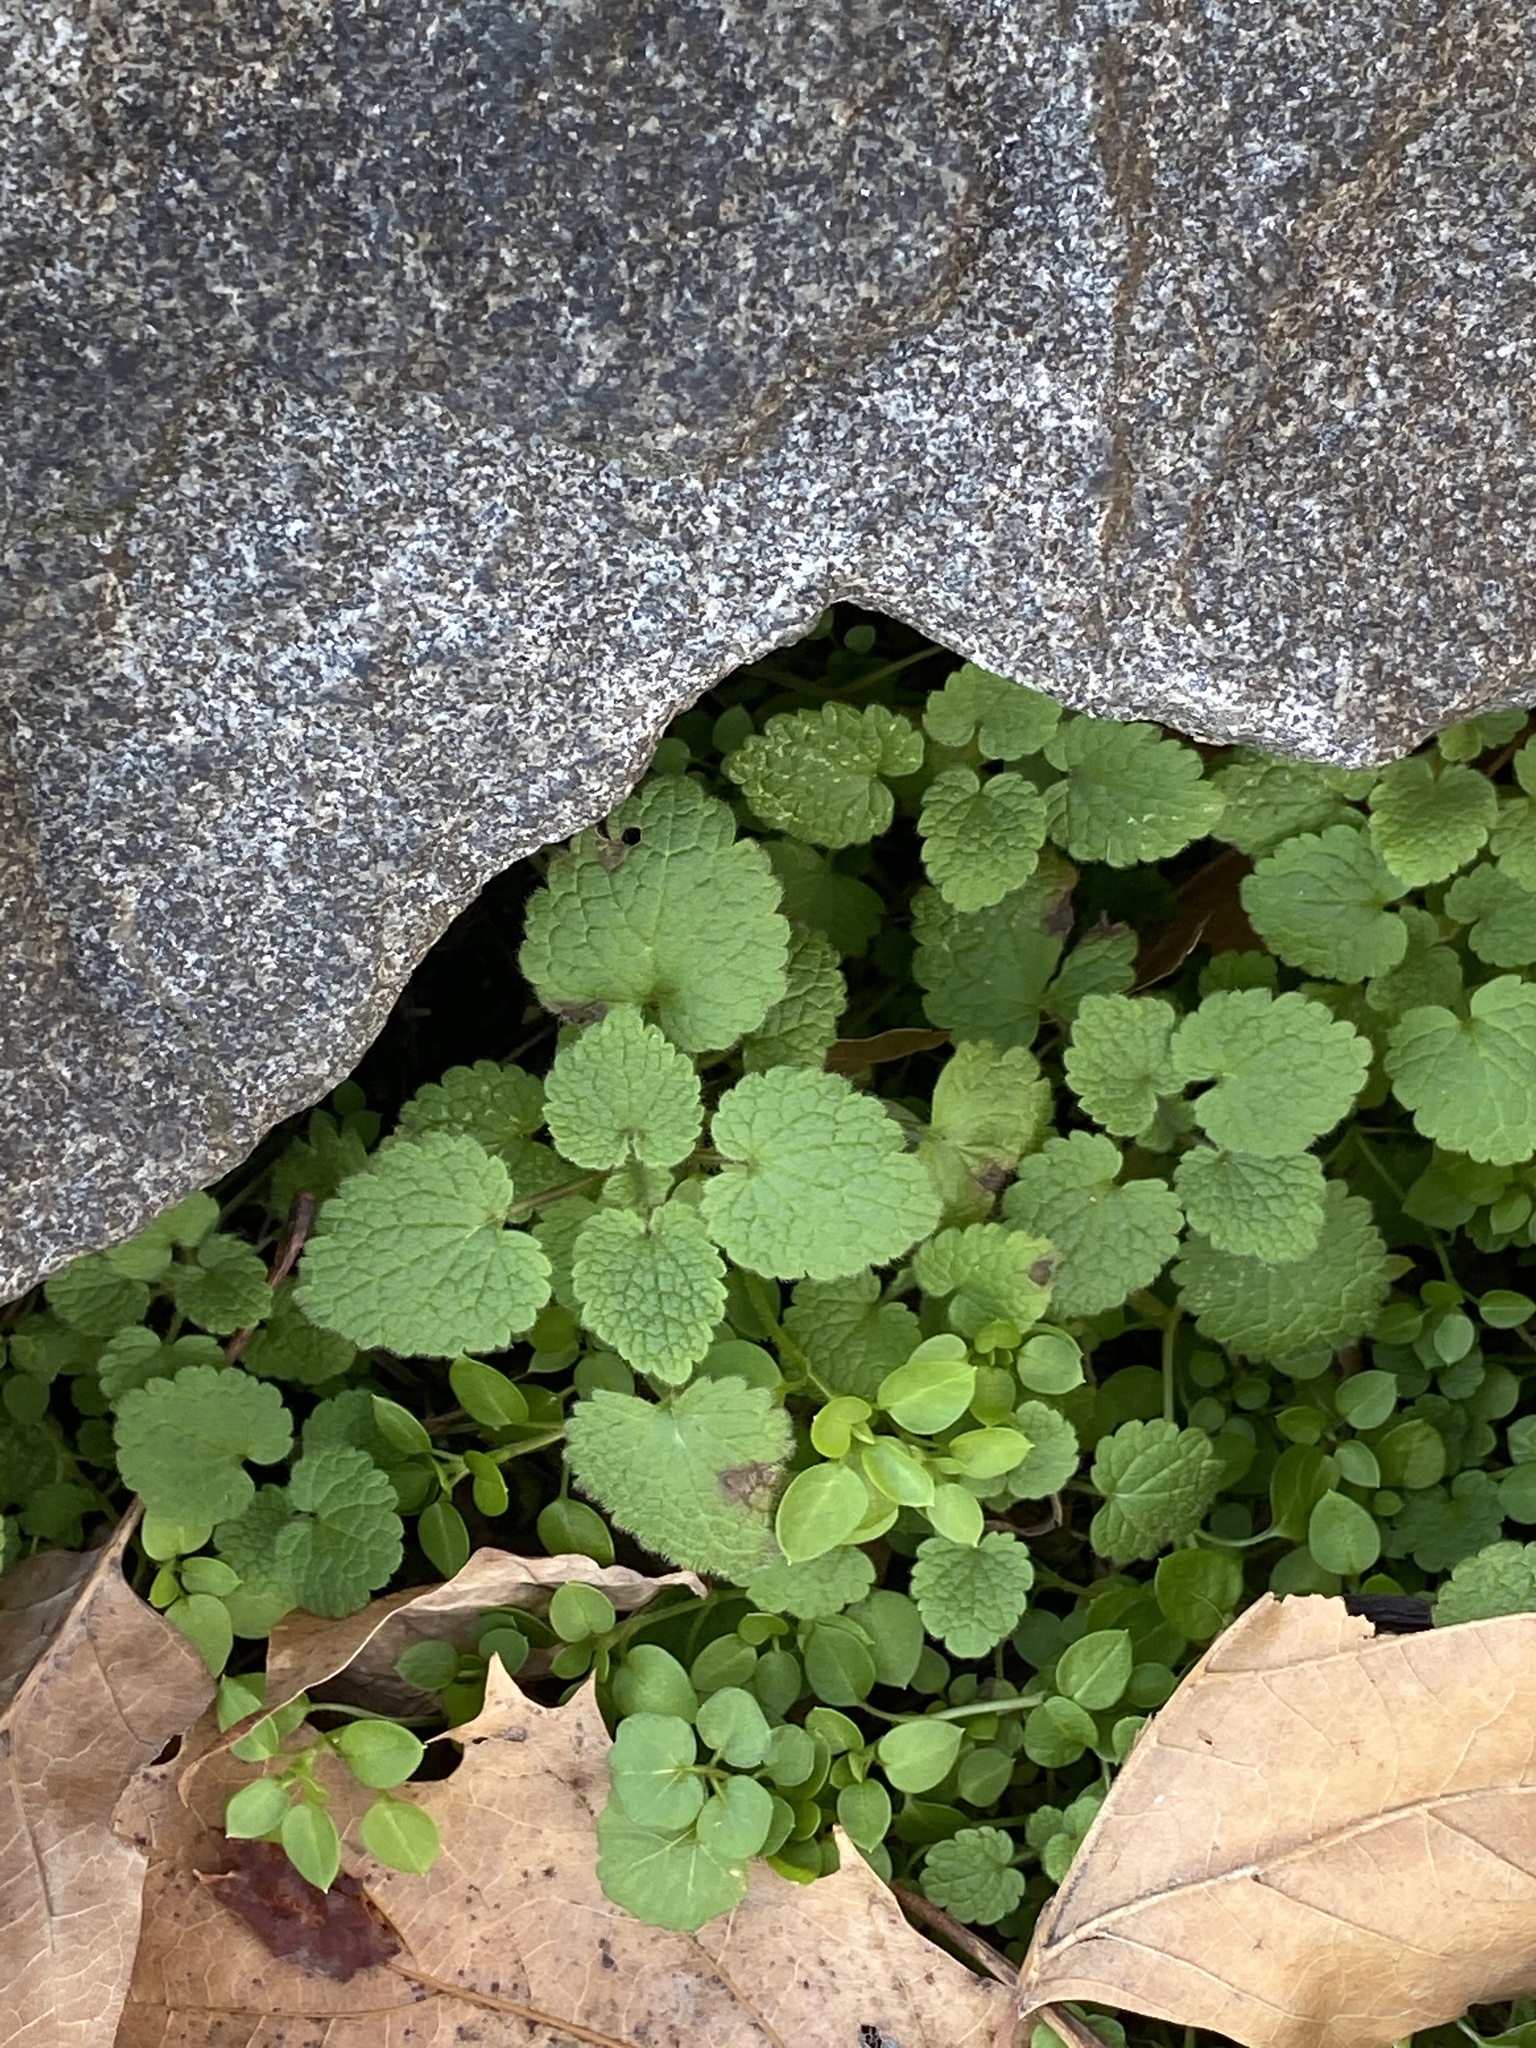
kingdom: Plantae
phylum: Tracheophyta
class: Magnoliopsida
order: Lamiales
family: Lamiaceae
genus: Lamium
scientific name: Lamium purpureum
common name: Red dead-nettle
